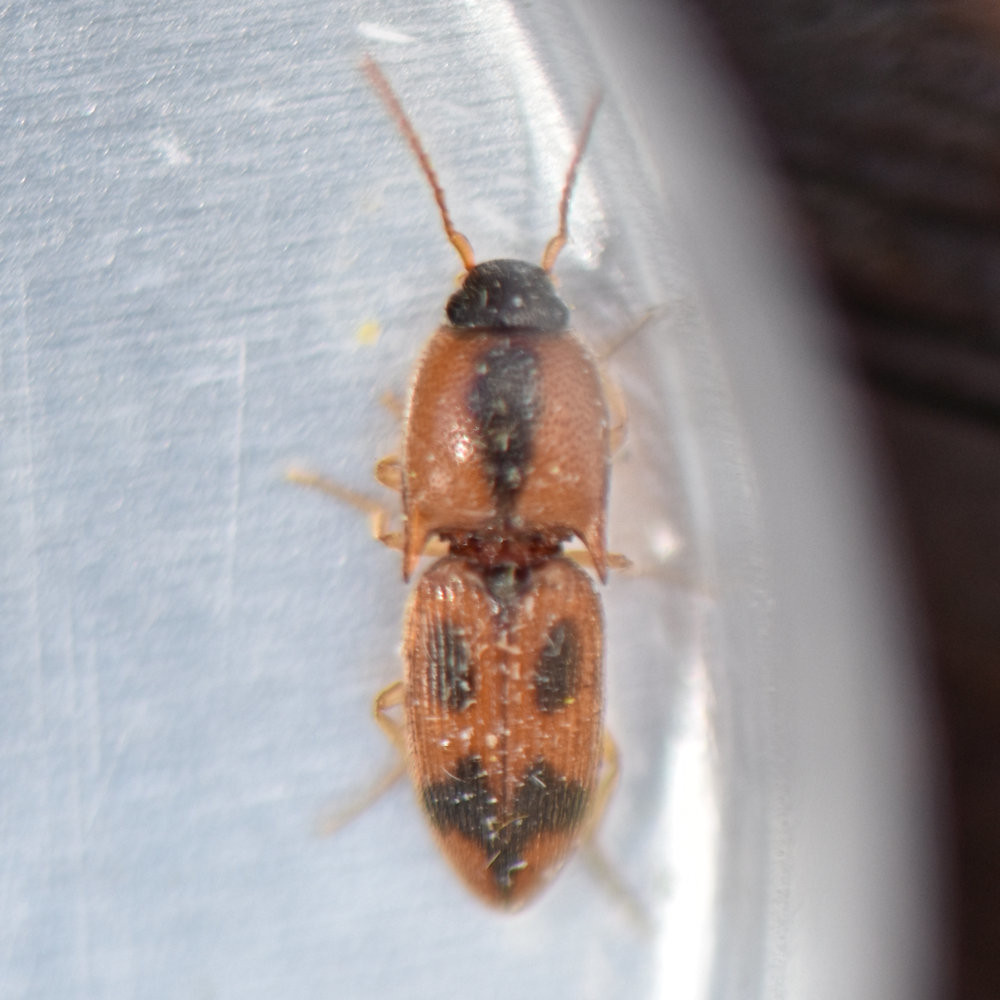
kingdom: Animalia
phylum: Arthropoda
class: Insecta
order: Coleoptera
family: Elateridae
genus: Aeolus
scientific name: Aeolus mellillus
